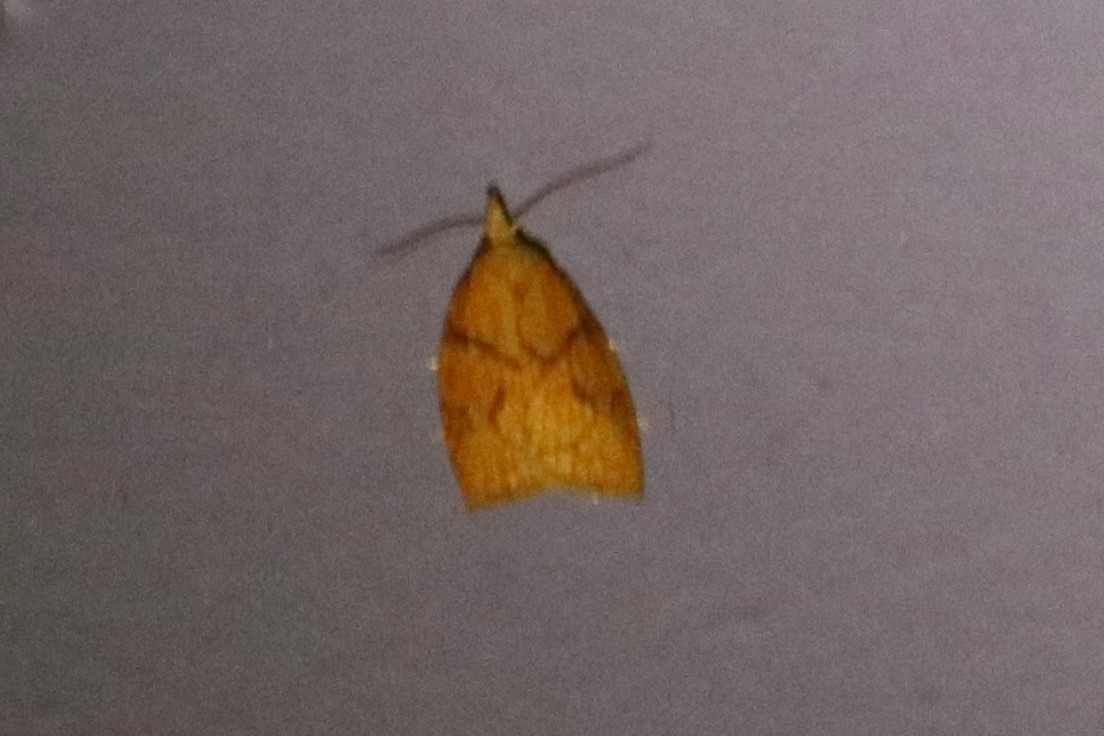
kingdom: Animalia
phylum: Arthropoda
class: Insecta
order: Lepidoptera
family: Tortricidae
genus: Cenopis
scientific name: Cenopis reticulatana
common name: Reticulated fruitworm moth
